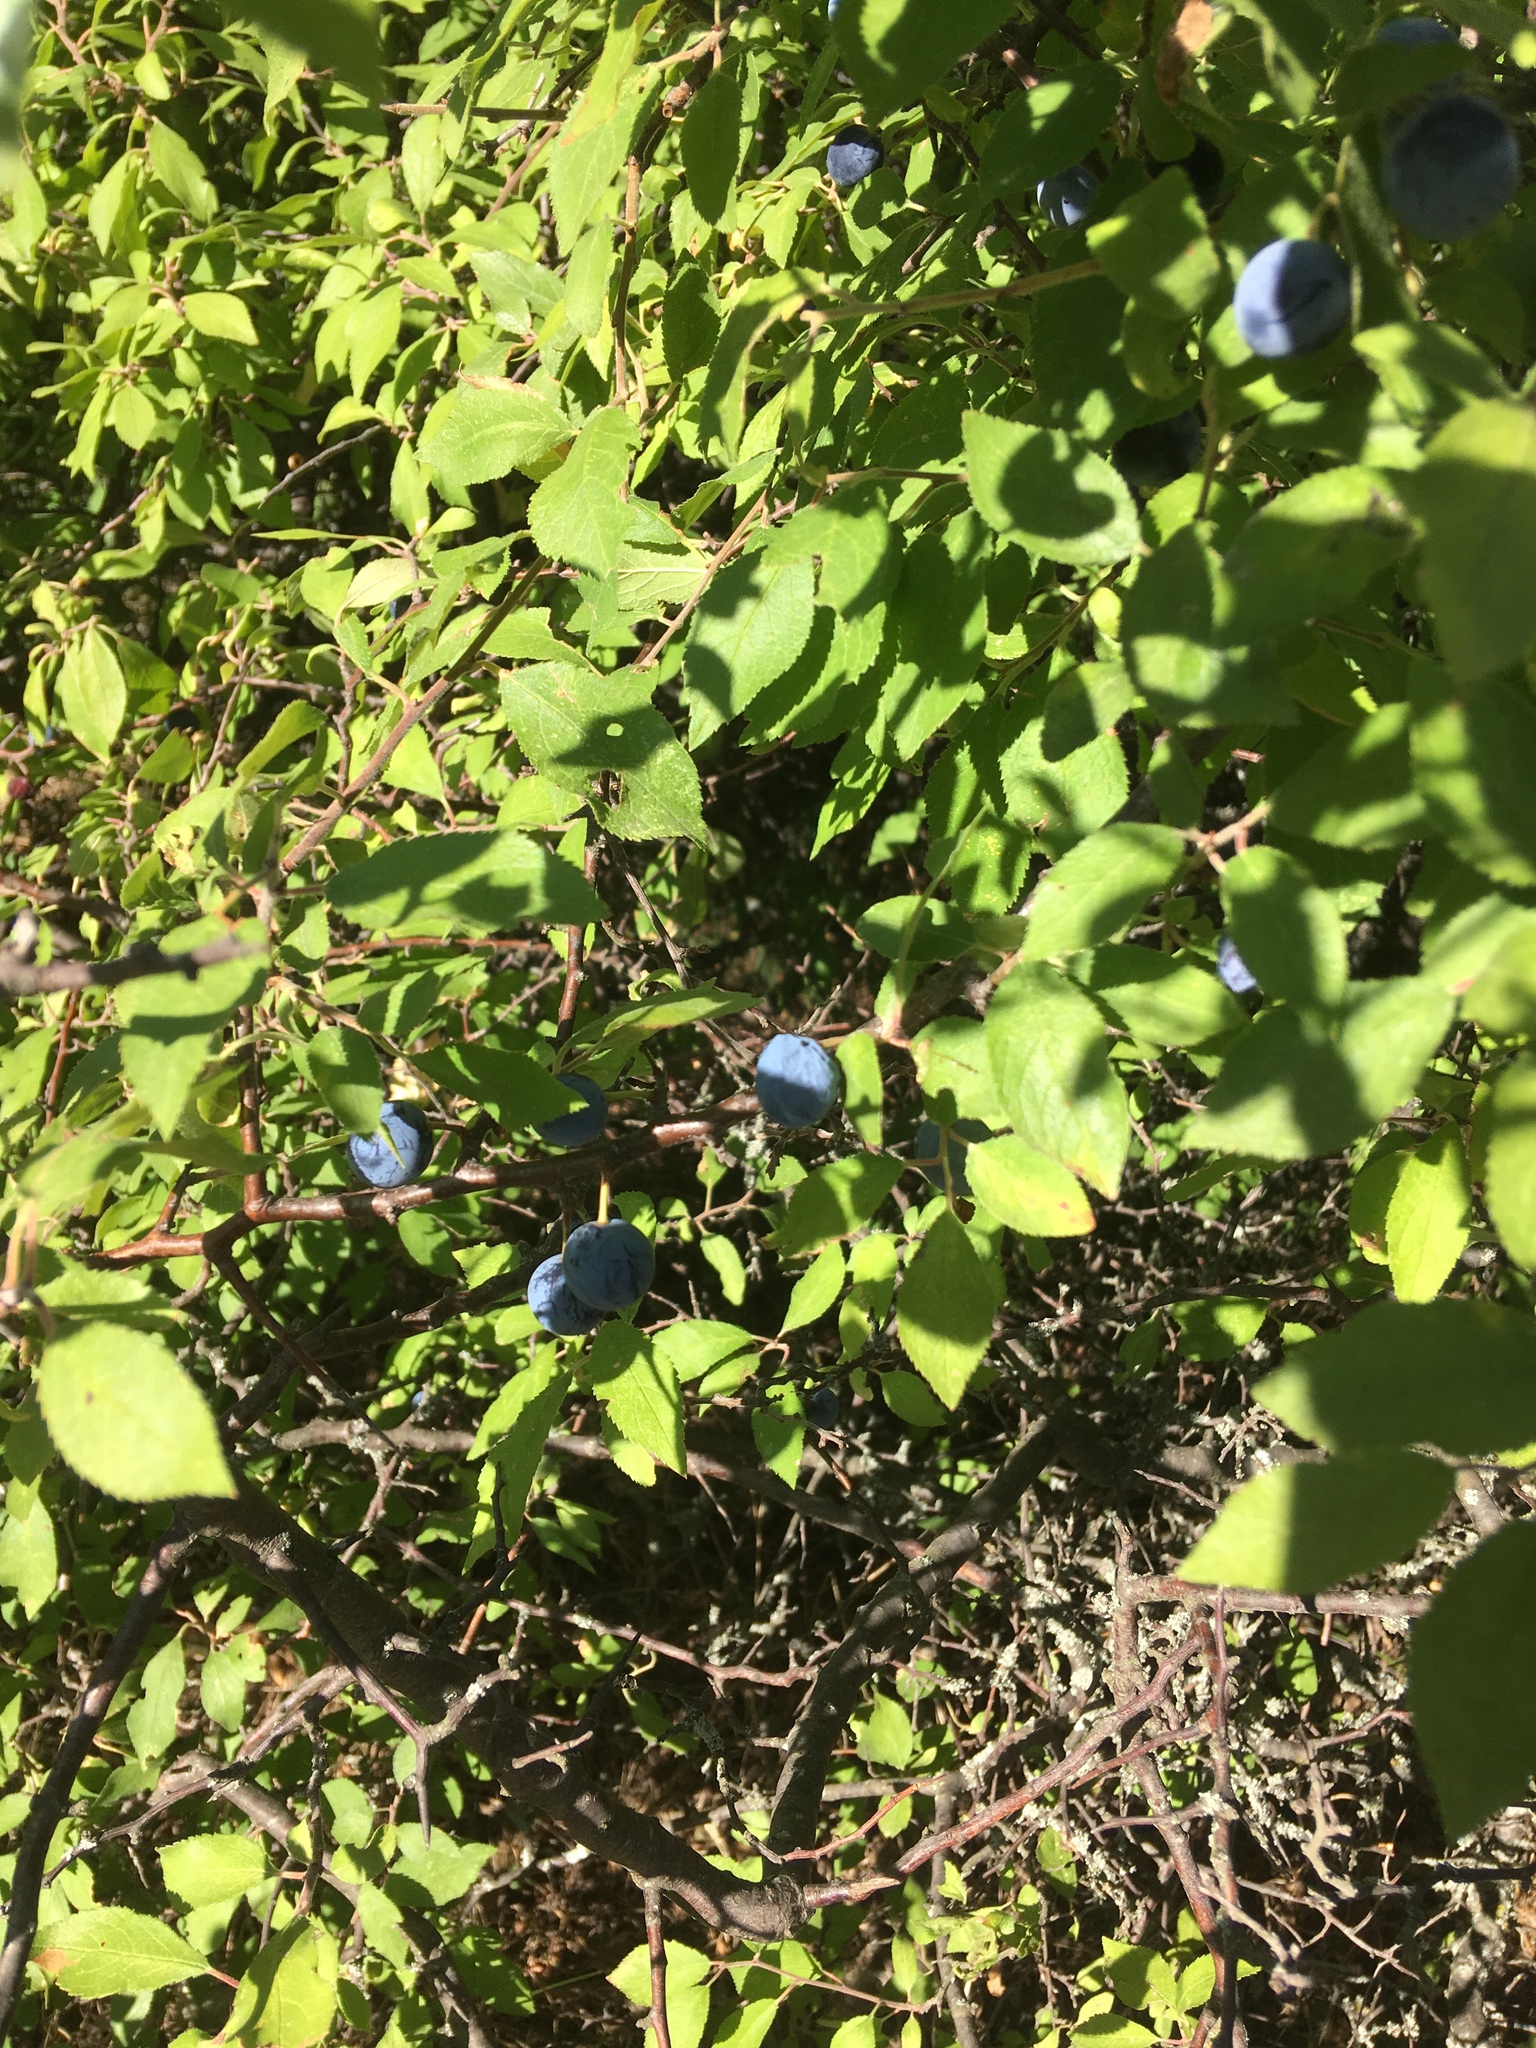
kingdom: Plantae
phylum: Tracheophyta
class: Magnoliopsida
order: Rosales
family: Rosaceae
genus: Prunus
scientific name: Prunus spinosa
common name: Blackthorn
